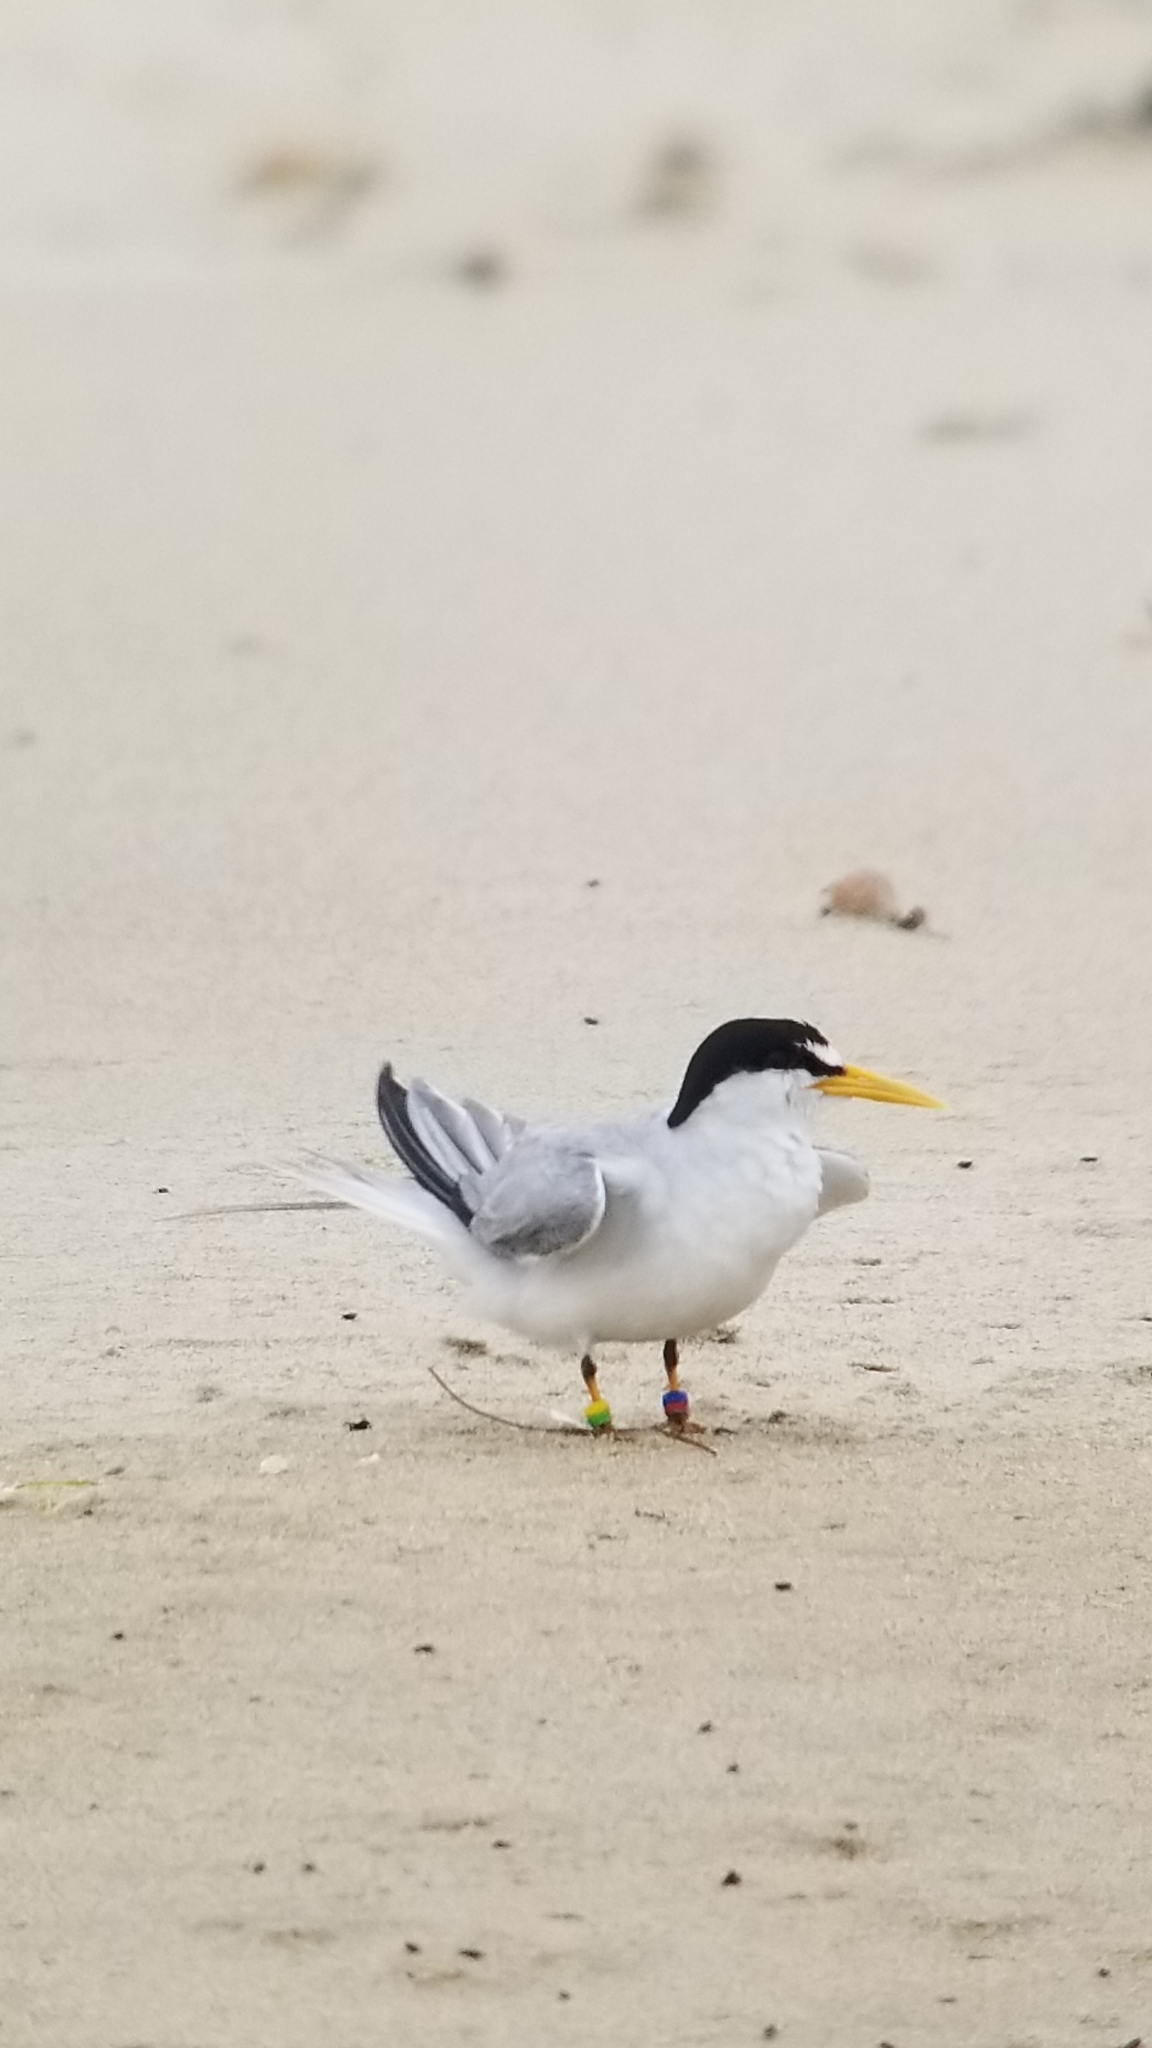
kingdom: Animalia
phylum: Chordata
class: Aves
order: Charadriiformes
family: Laridae
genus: Sternula
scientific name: Sternula antillarum
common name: Least tern
